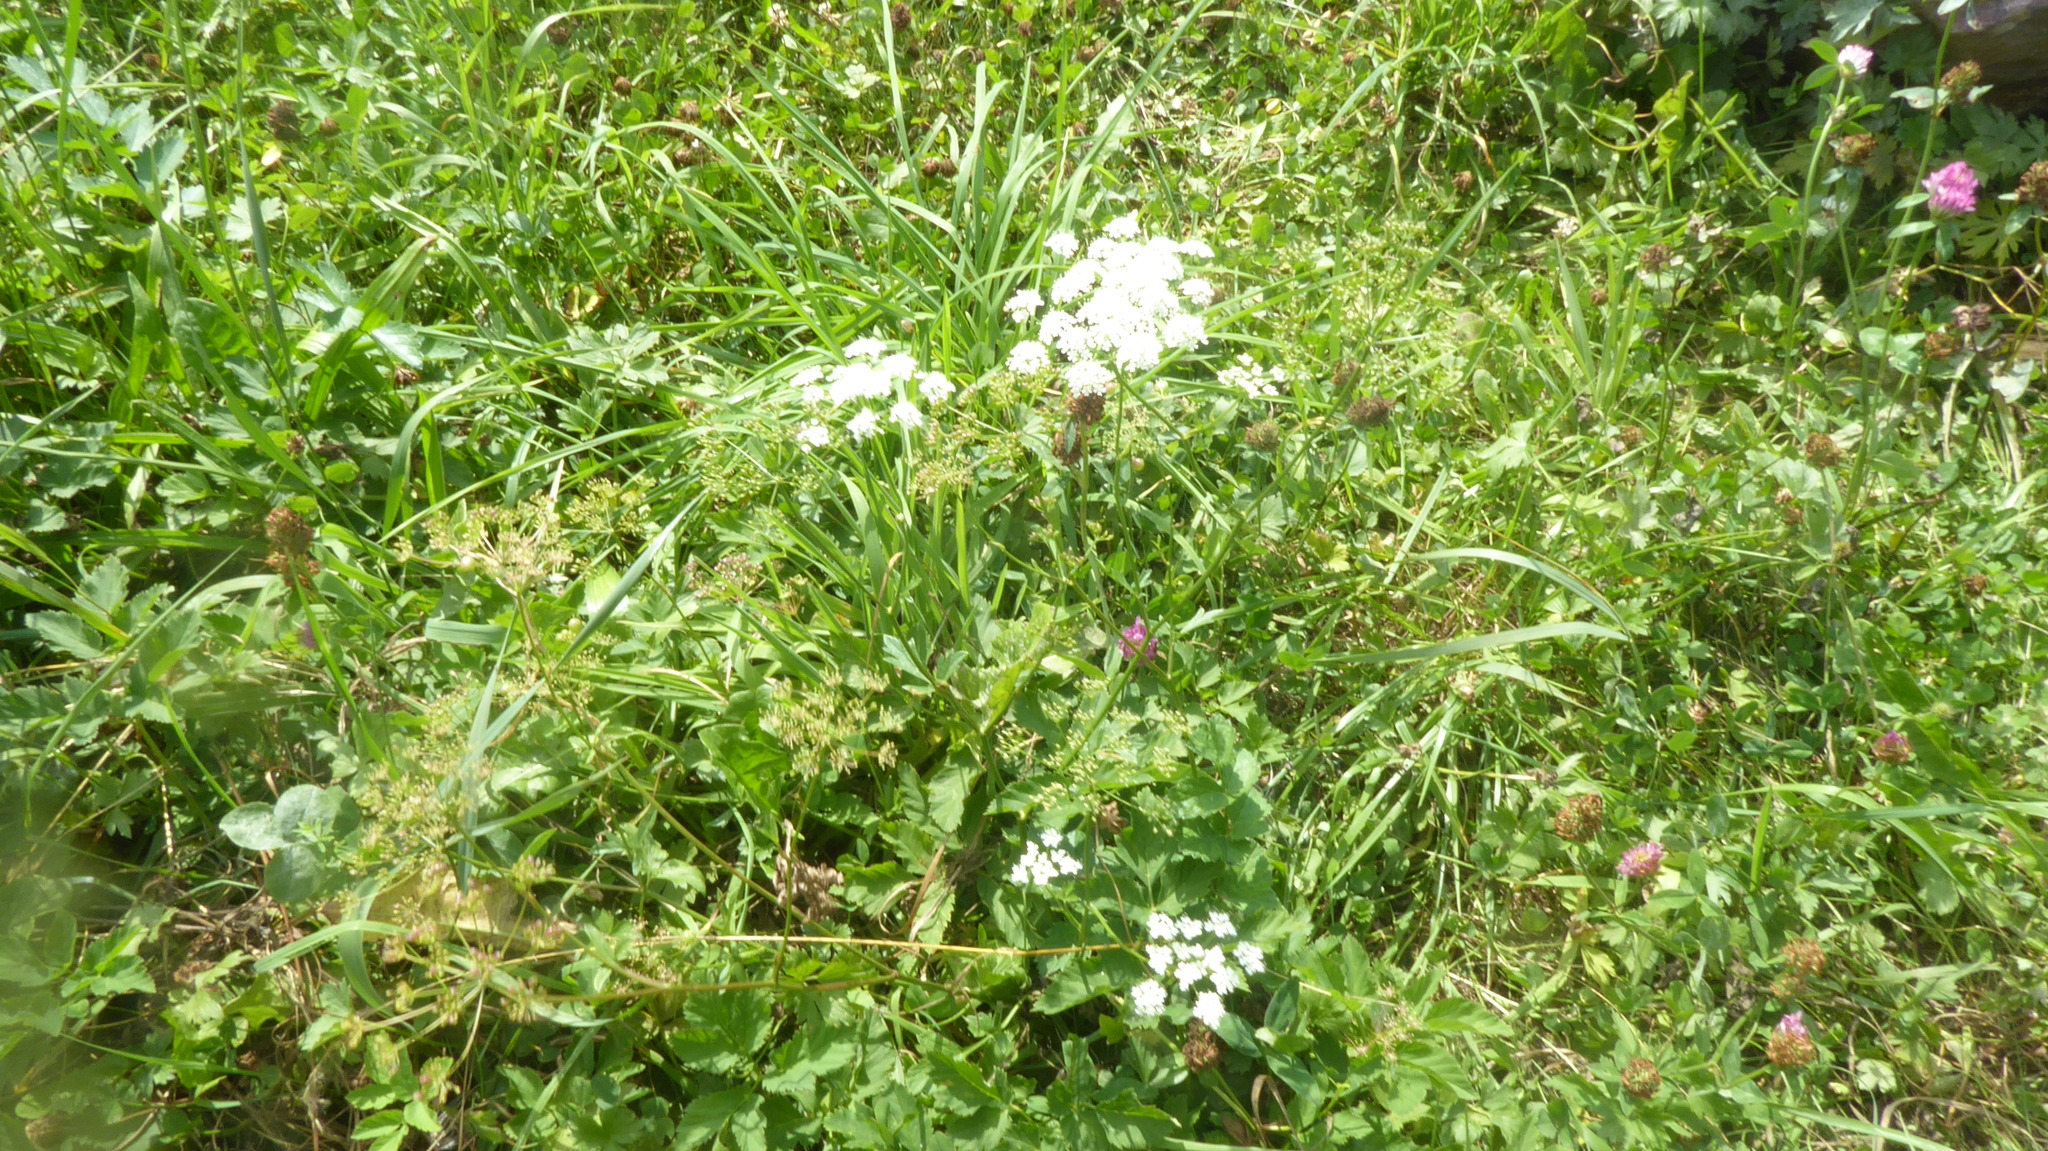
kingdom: Plantae
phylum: Tracheophyta
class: Magnoliopsida
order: Apiales
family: Apiaceae
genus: Pimpinella
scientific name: Pimpinella major
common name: Greater burnet-saxifrage
